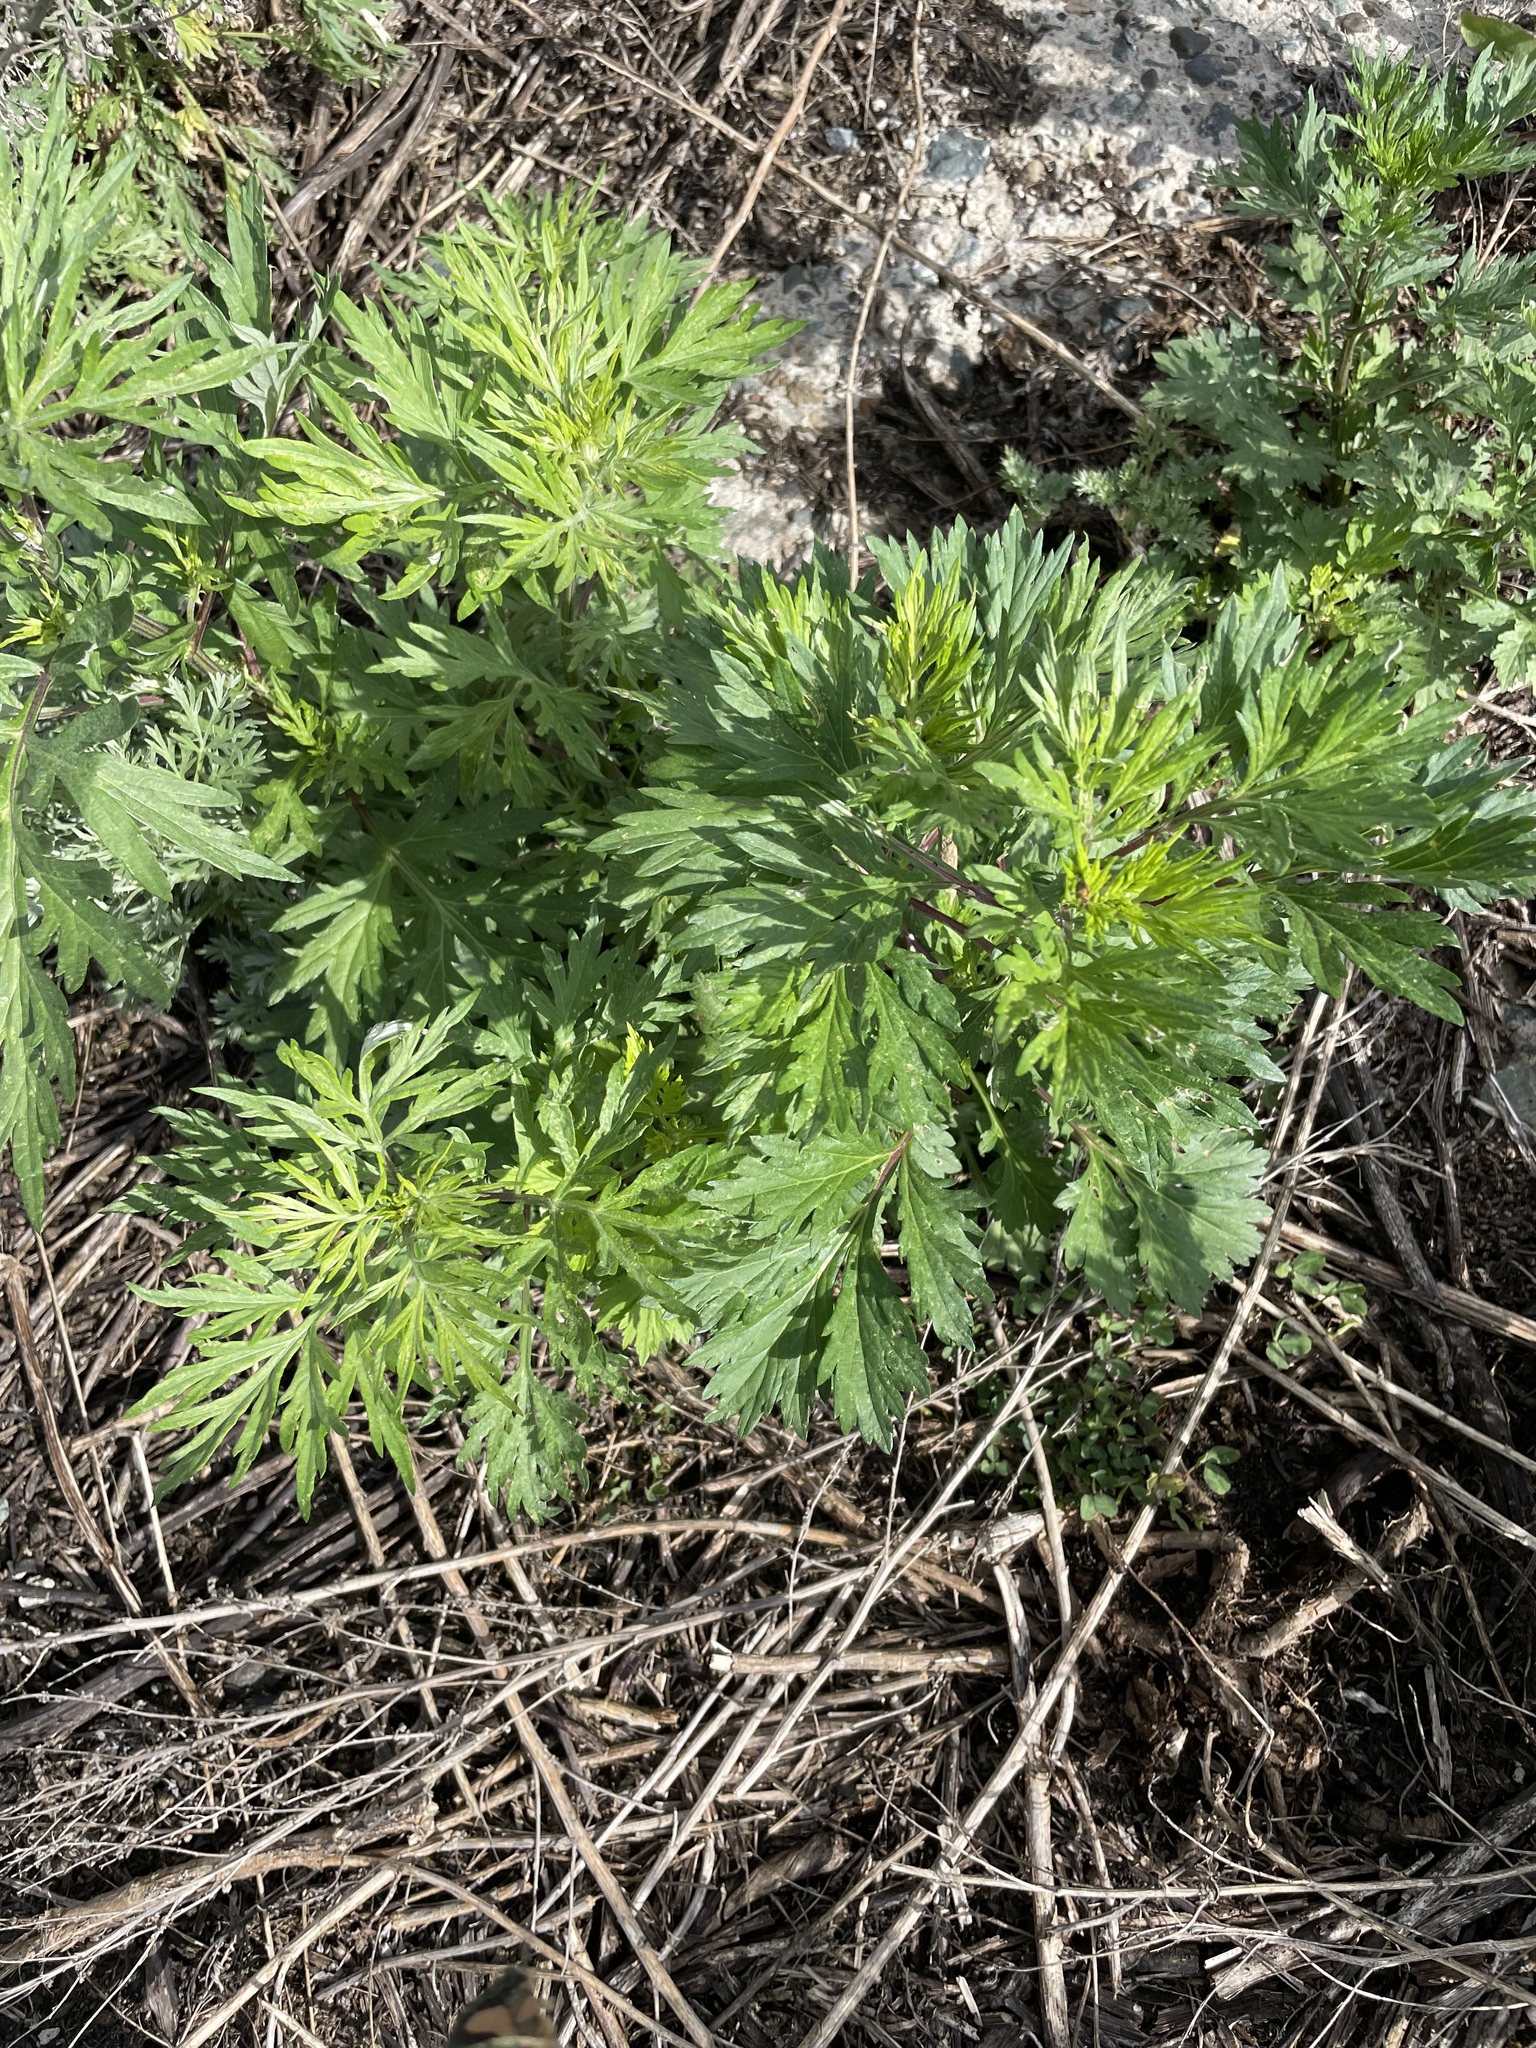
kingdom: Plantae
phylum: Tracheophyta
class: Magnoliopsida
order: Asterales
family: Asteraceae
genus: Artemisia
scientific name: Artemisia vulgaris
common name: Mugwort
